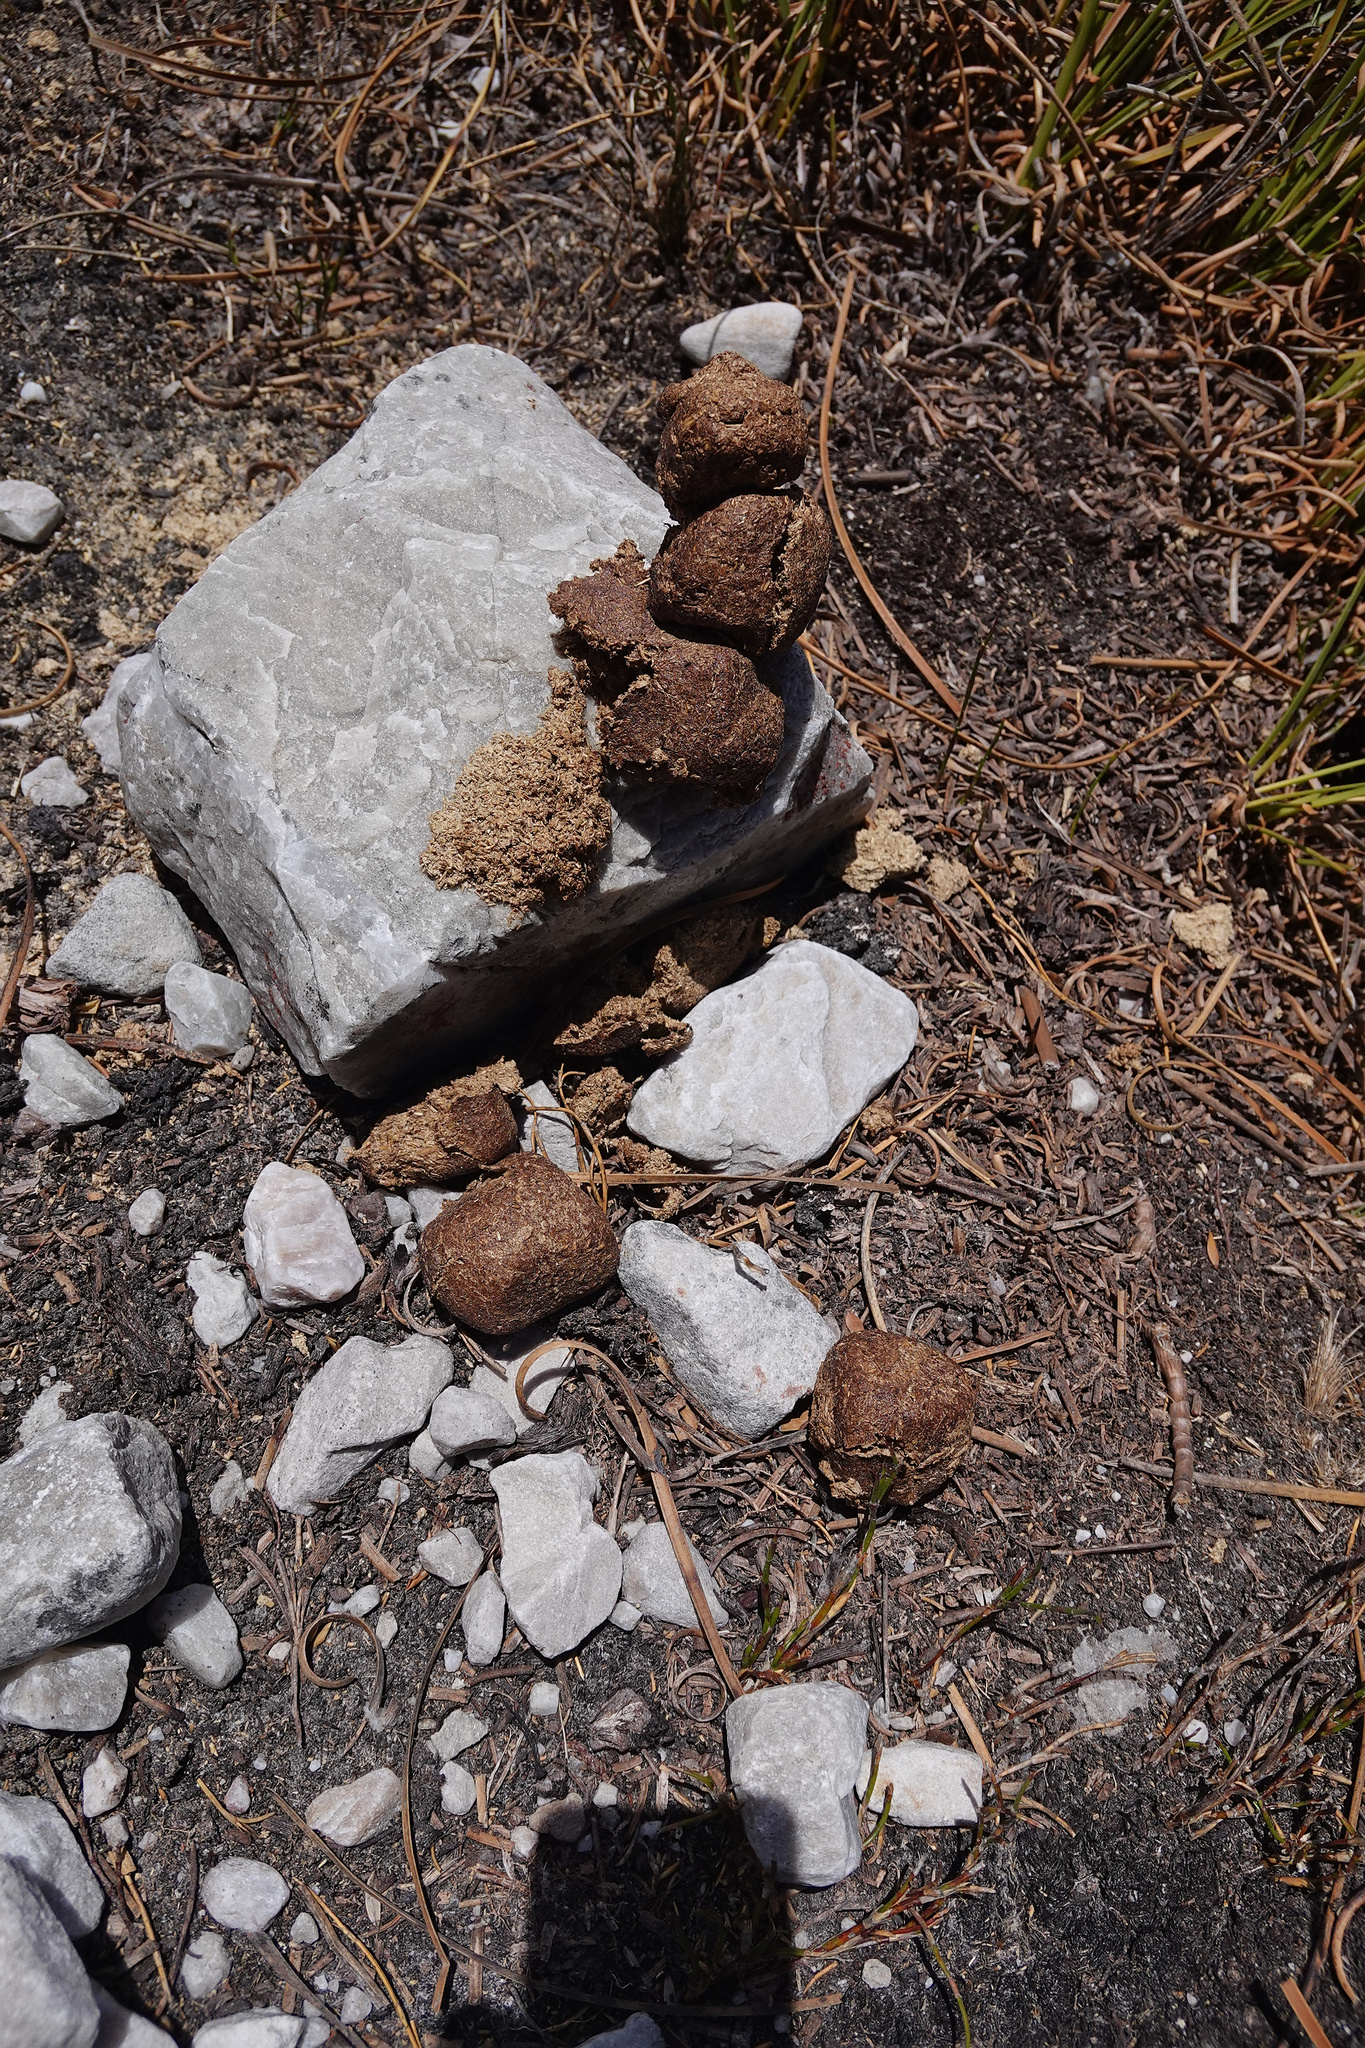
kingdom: Animalia
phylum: Chordata
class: Mammalia
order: Diprotodontia
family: Vombatidae
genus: Vombatus
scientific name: Vombatus ursinus
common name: Common wombat
